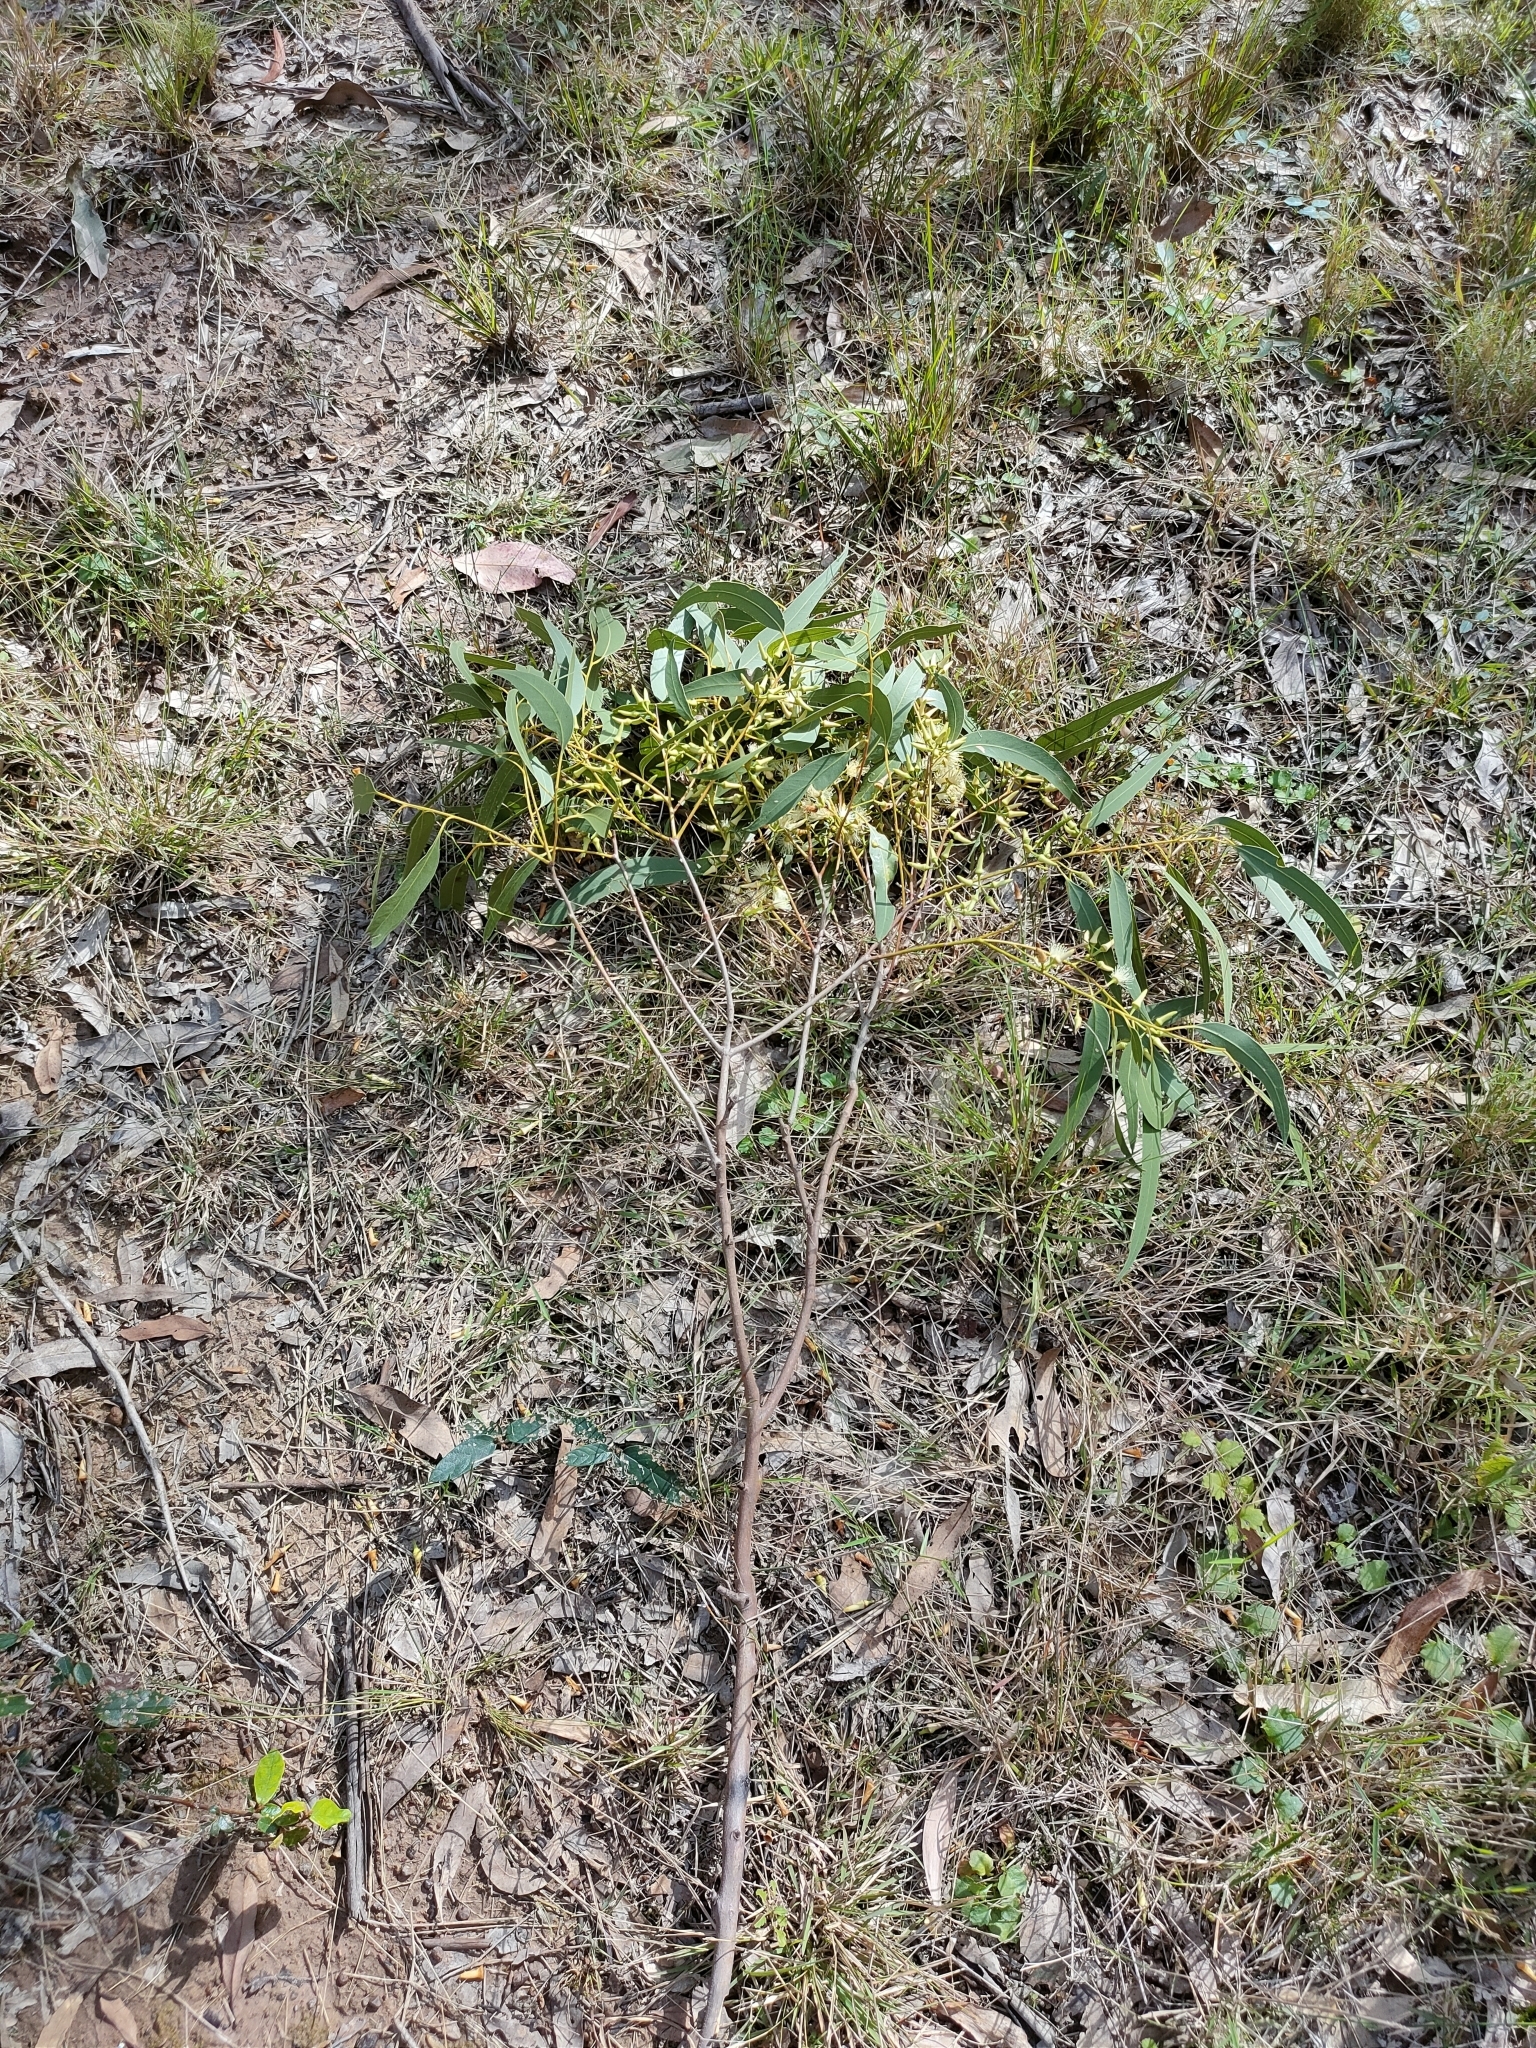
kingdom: Plantae
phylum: Tracheophyta
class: Magnoliopsida
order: Myrtales
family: Myrtaceae
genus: Eucalyptus
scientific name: Eucalyptus tereticornis
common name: Forest redgum
